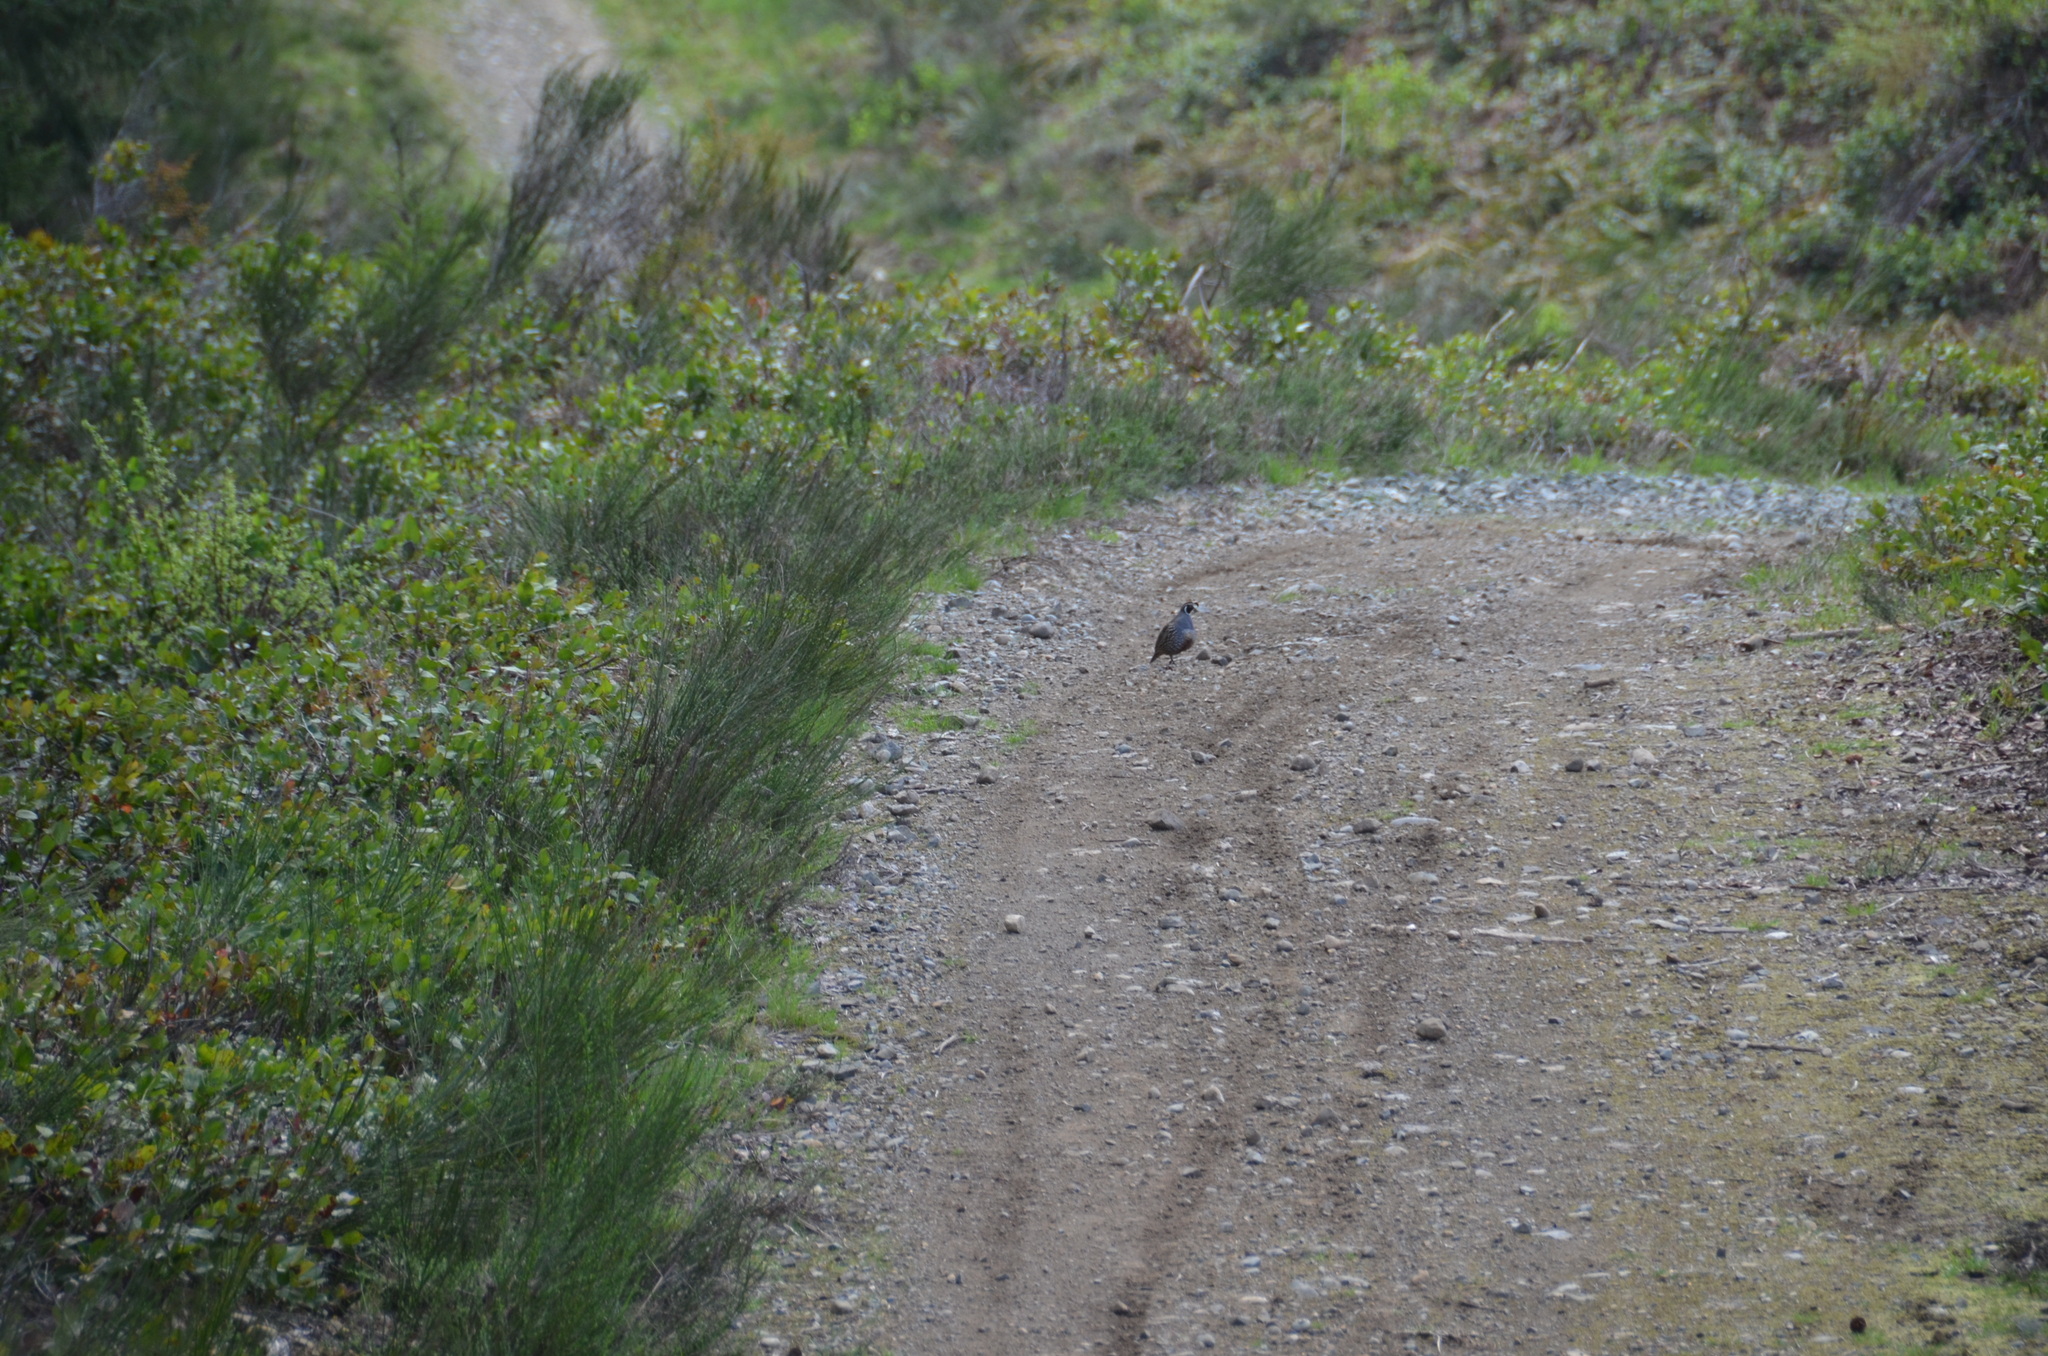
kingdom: Animalia
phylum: Chordata
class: Aves
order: Galliformes
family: Odontophoridae
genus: Callipepla
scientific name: Callipepla californica
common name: California quail
